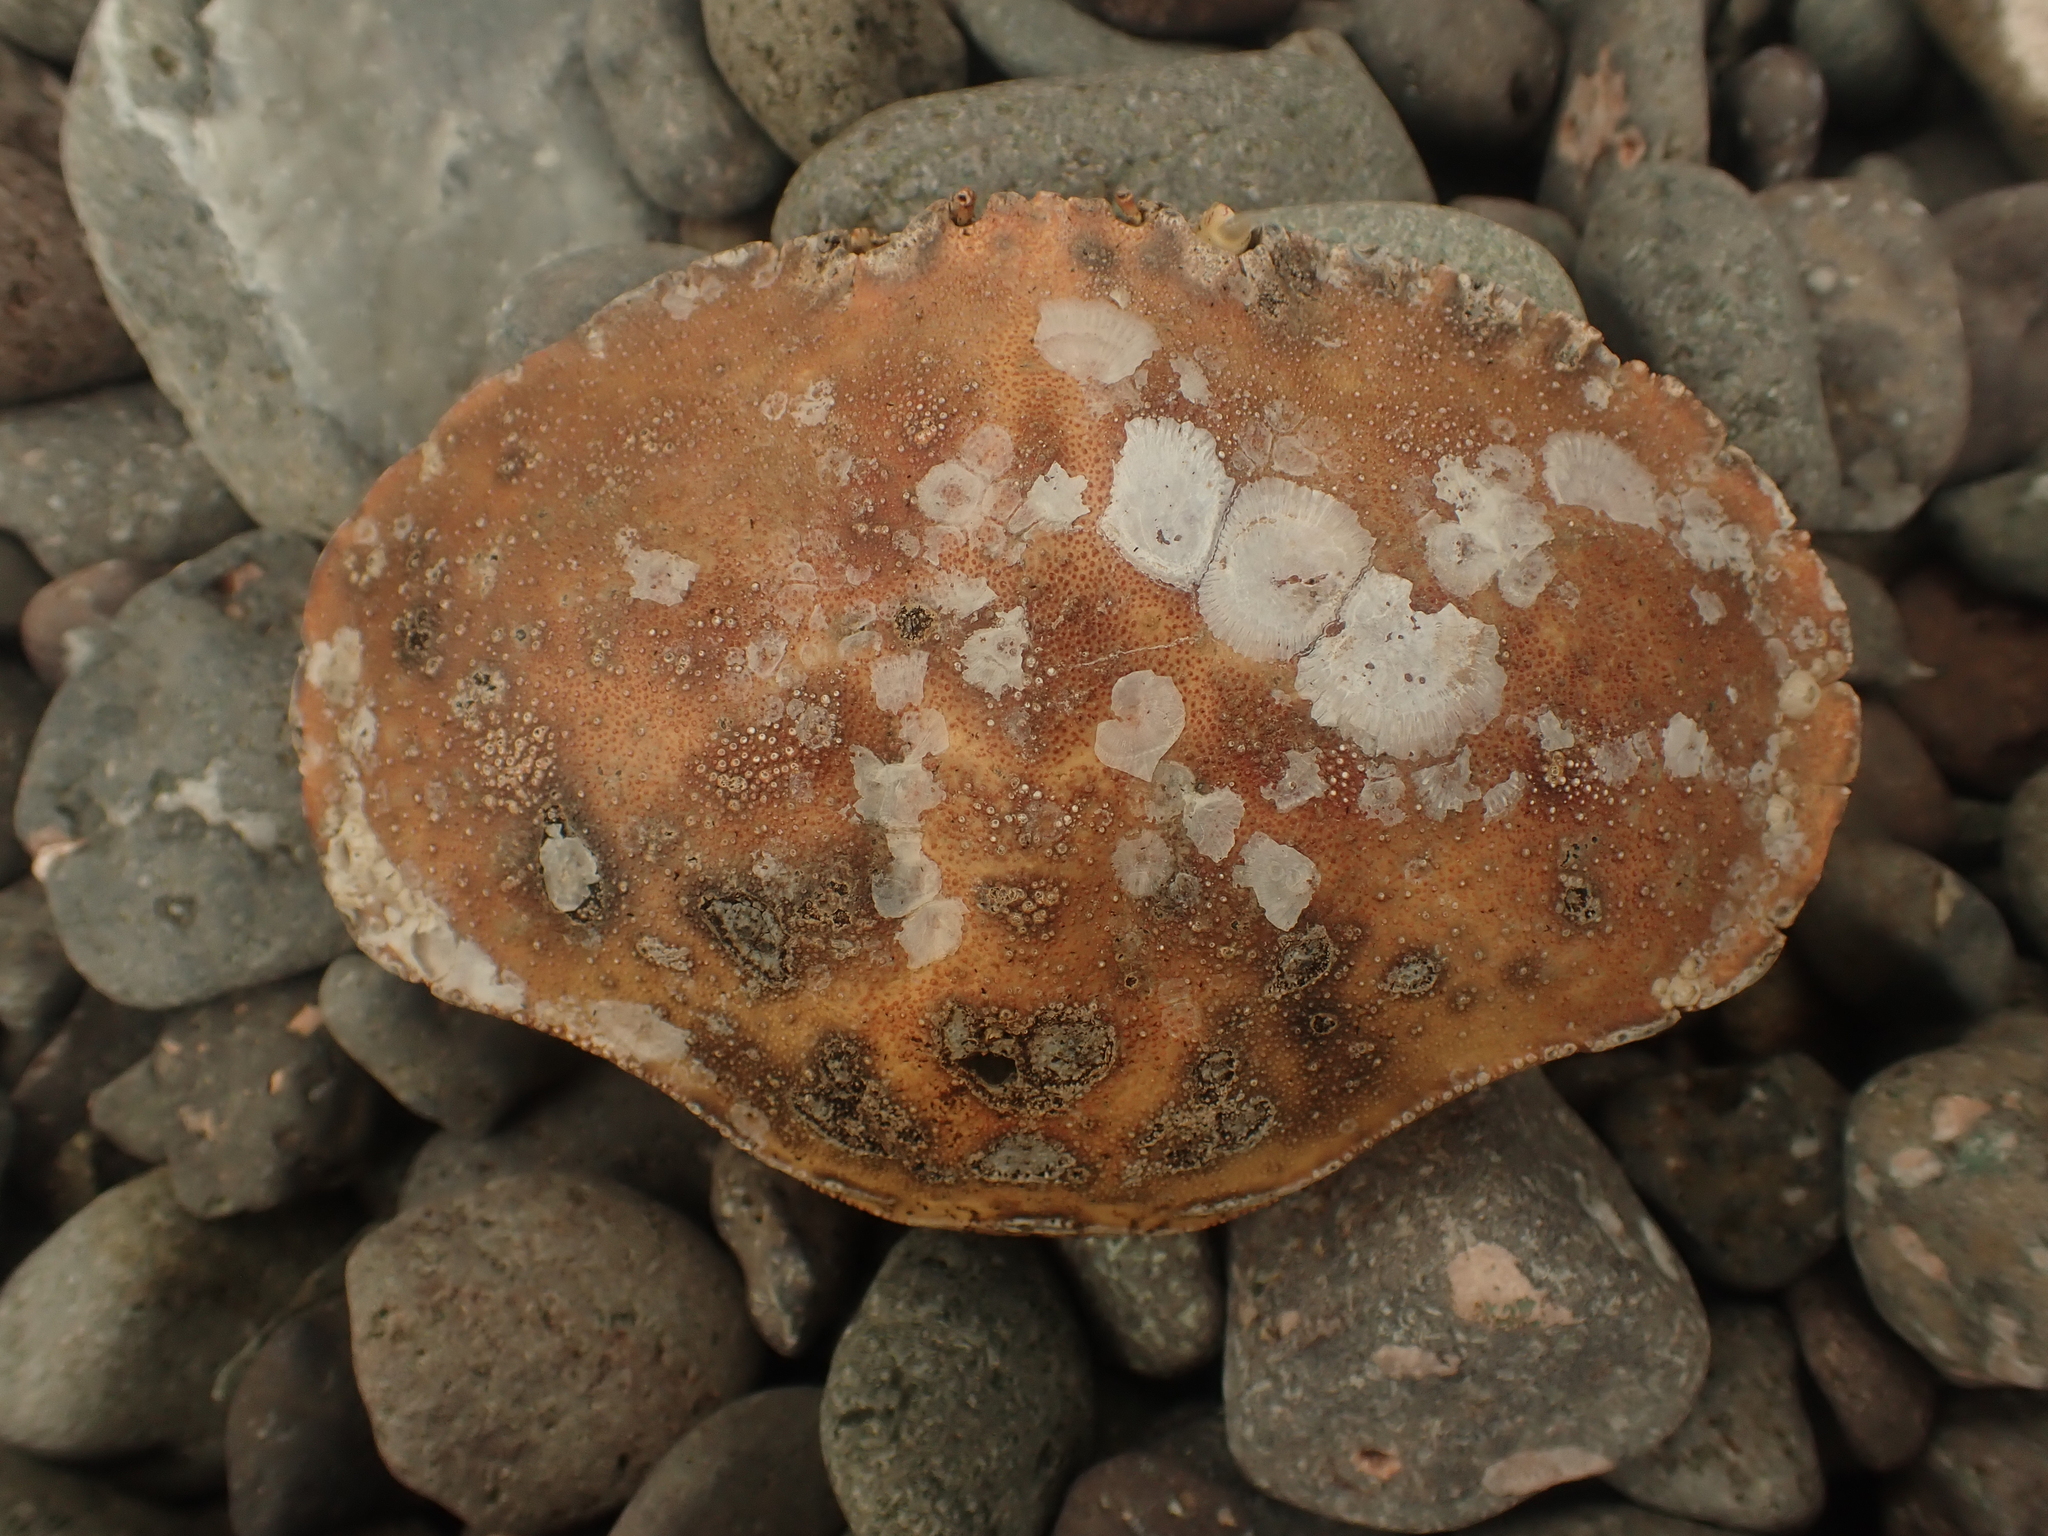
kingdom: Animalia
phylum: Arthropoda
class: Malacostraca
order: Decapoda
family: Cancridae
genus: Cancer
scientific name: Cancer borealis
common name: Jonah crab
